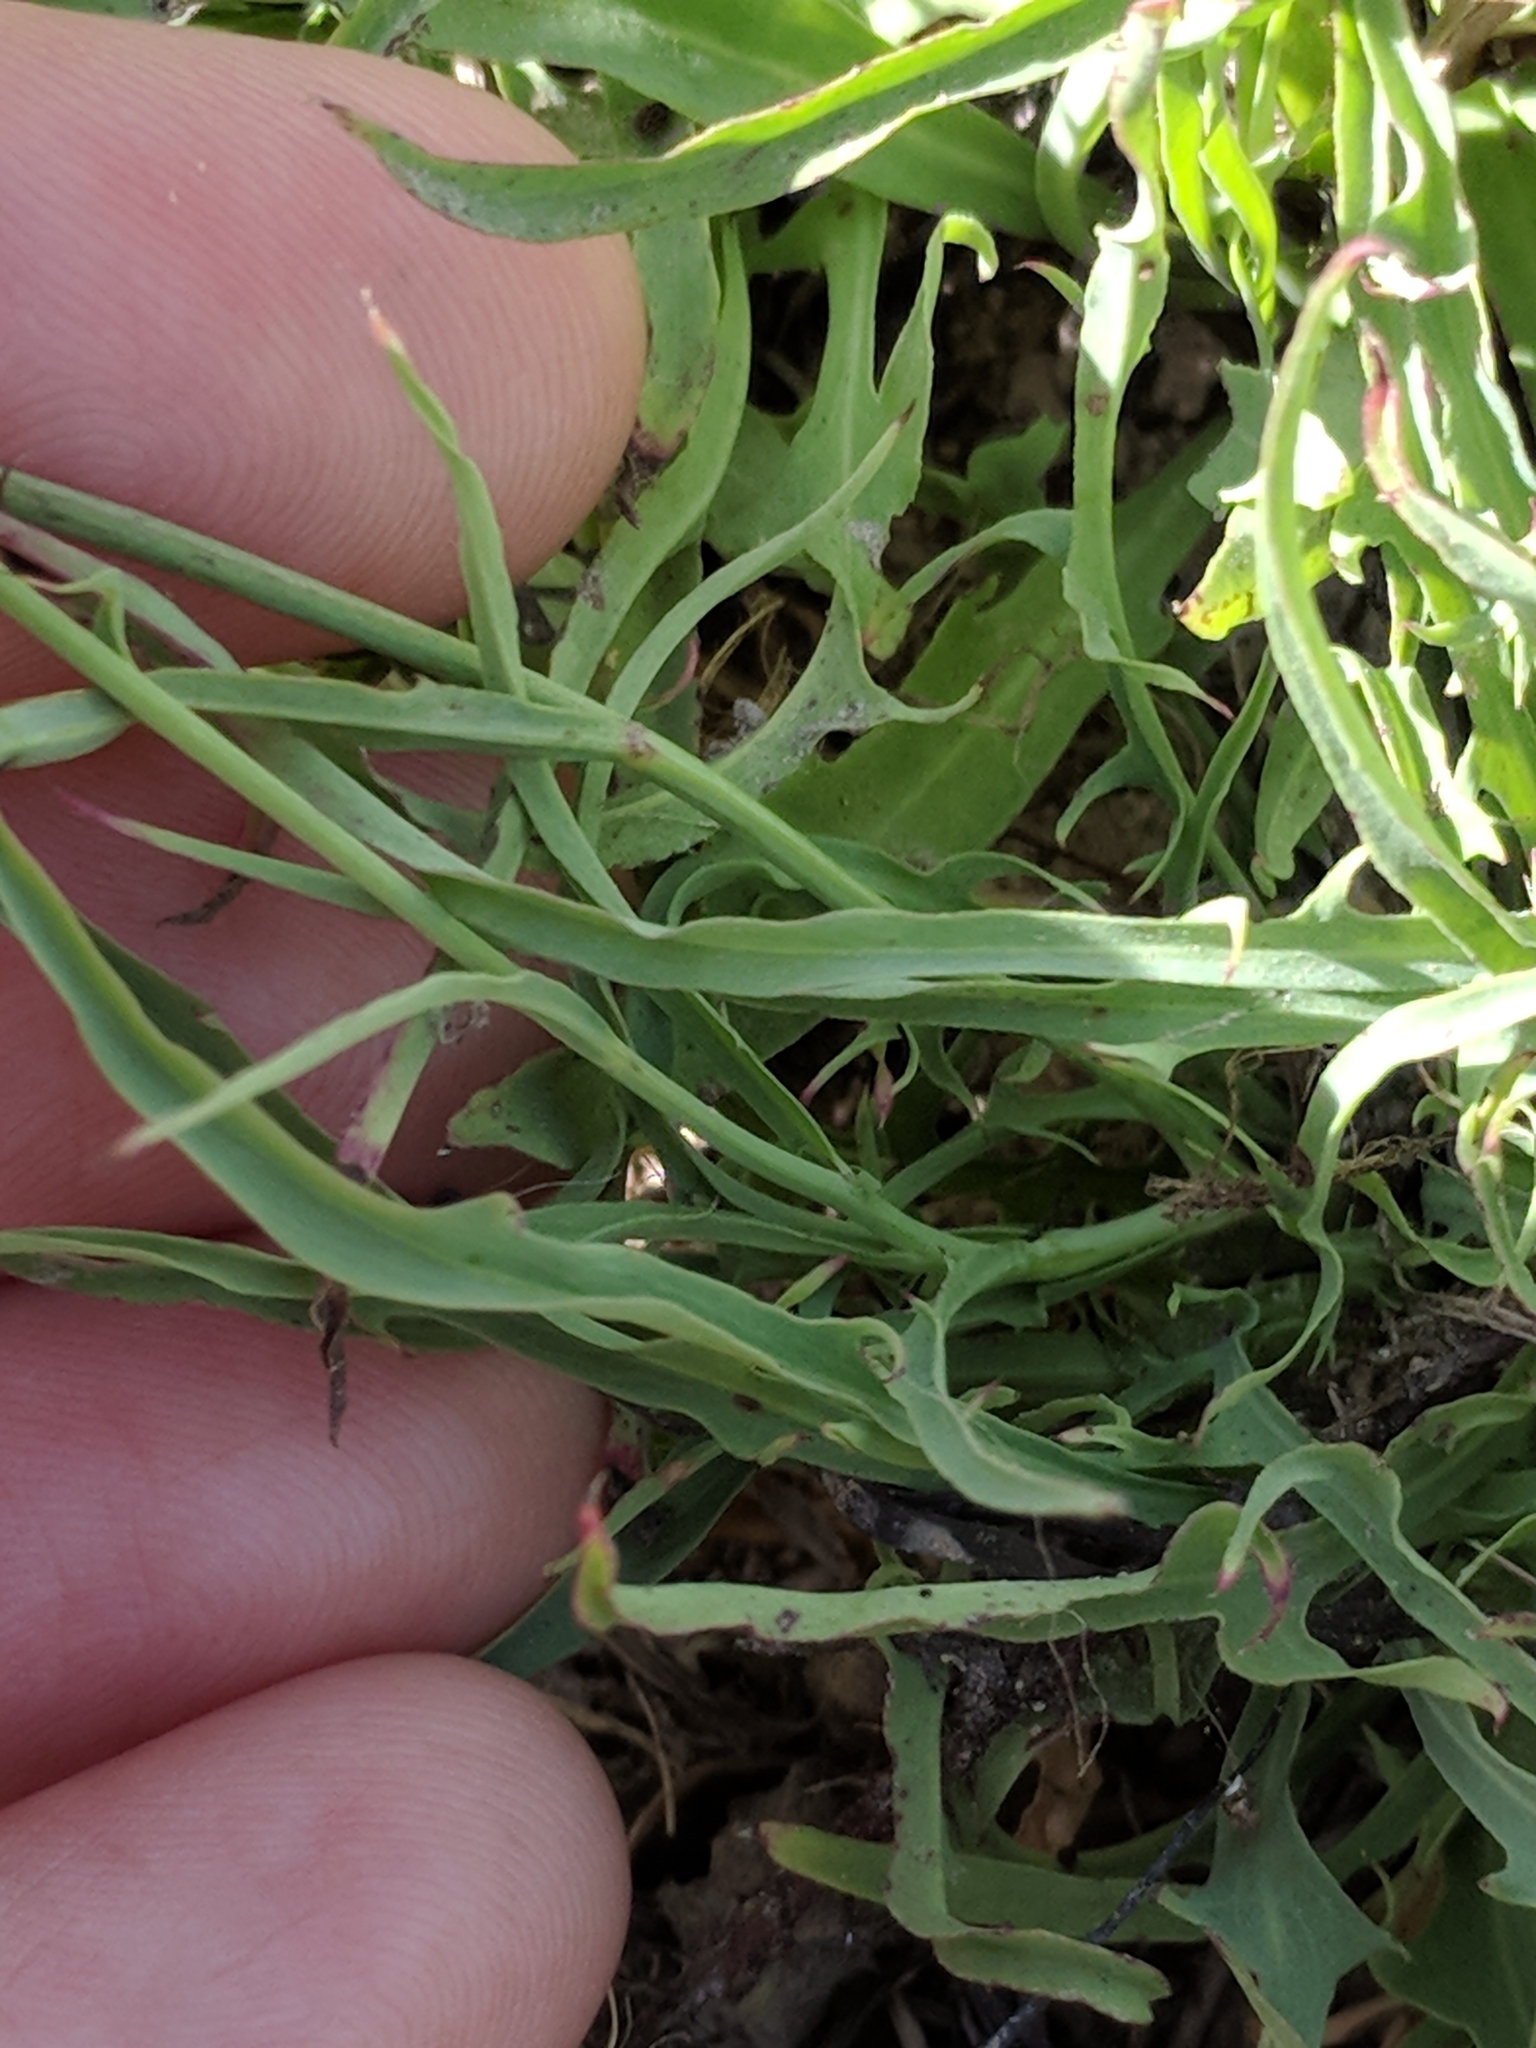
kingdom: Plantae
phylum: Tracheophyta
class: Magnoliopsida
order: Asterales
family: Asteraceae
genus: Pinaropappus
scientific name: Pinaropappus roseus
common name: Rock-lettuce
